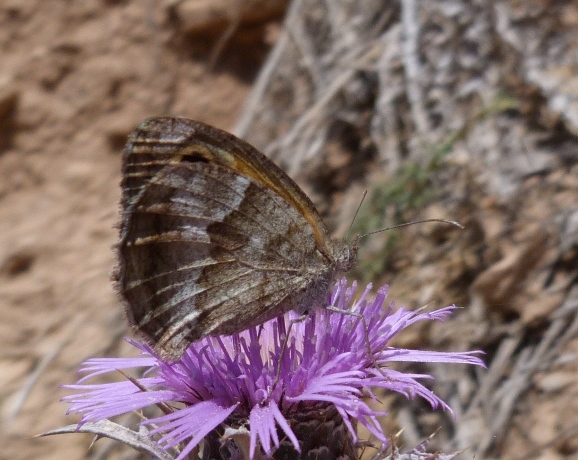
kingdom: Animalia
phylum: Arthropoda
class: Insecta
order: Lepidoptera
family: Nymphalidae
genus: Pyronia
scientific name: Pyronia cecilia
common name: Southern gatekeeper
